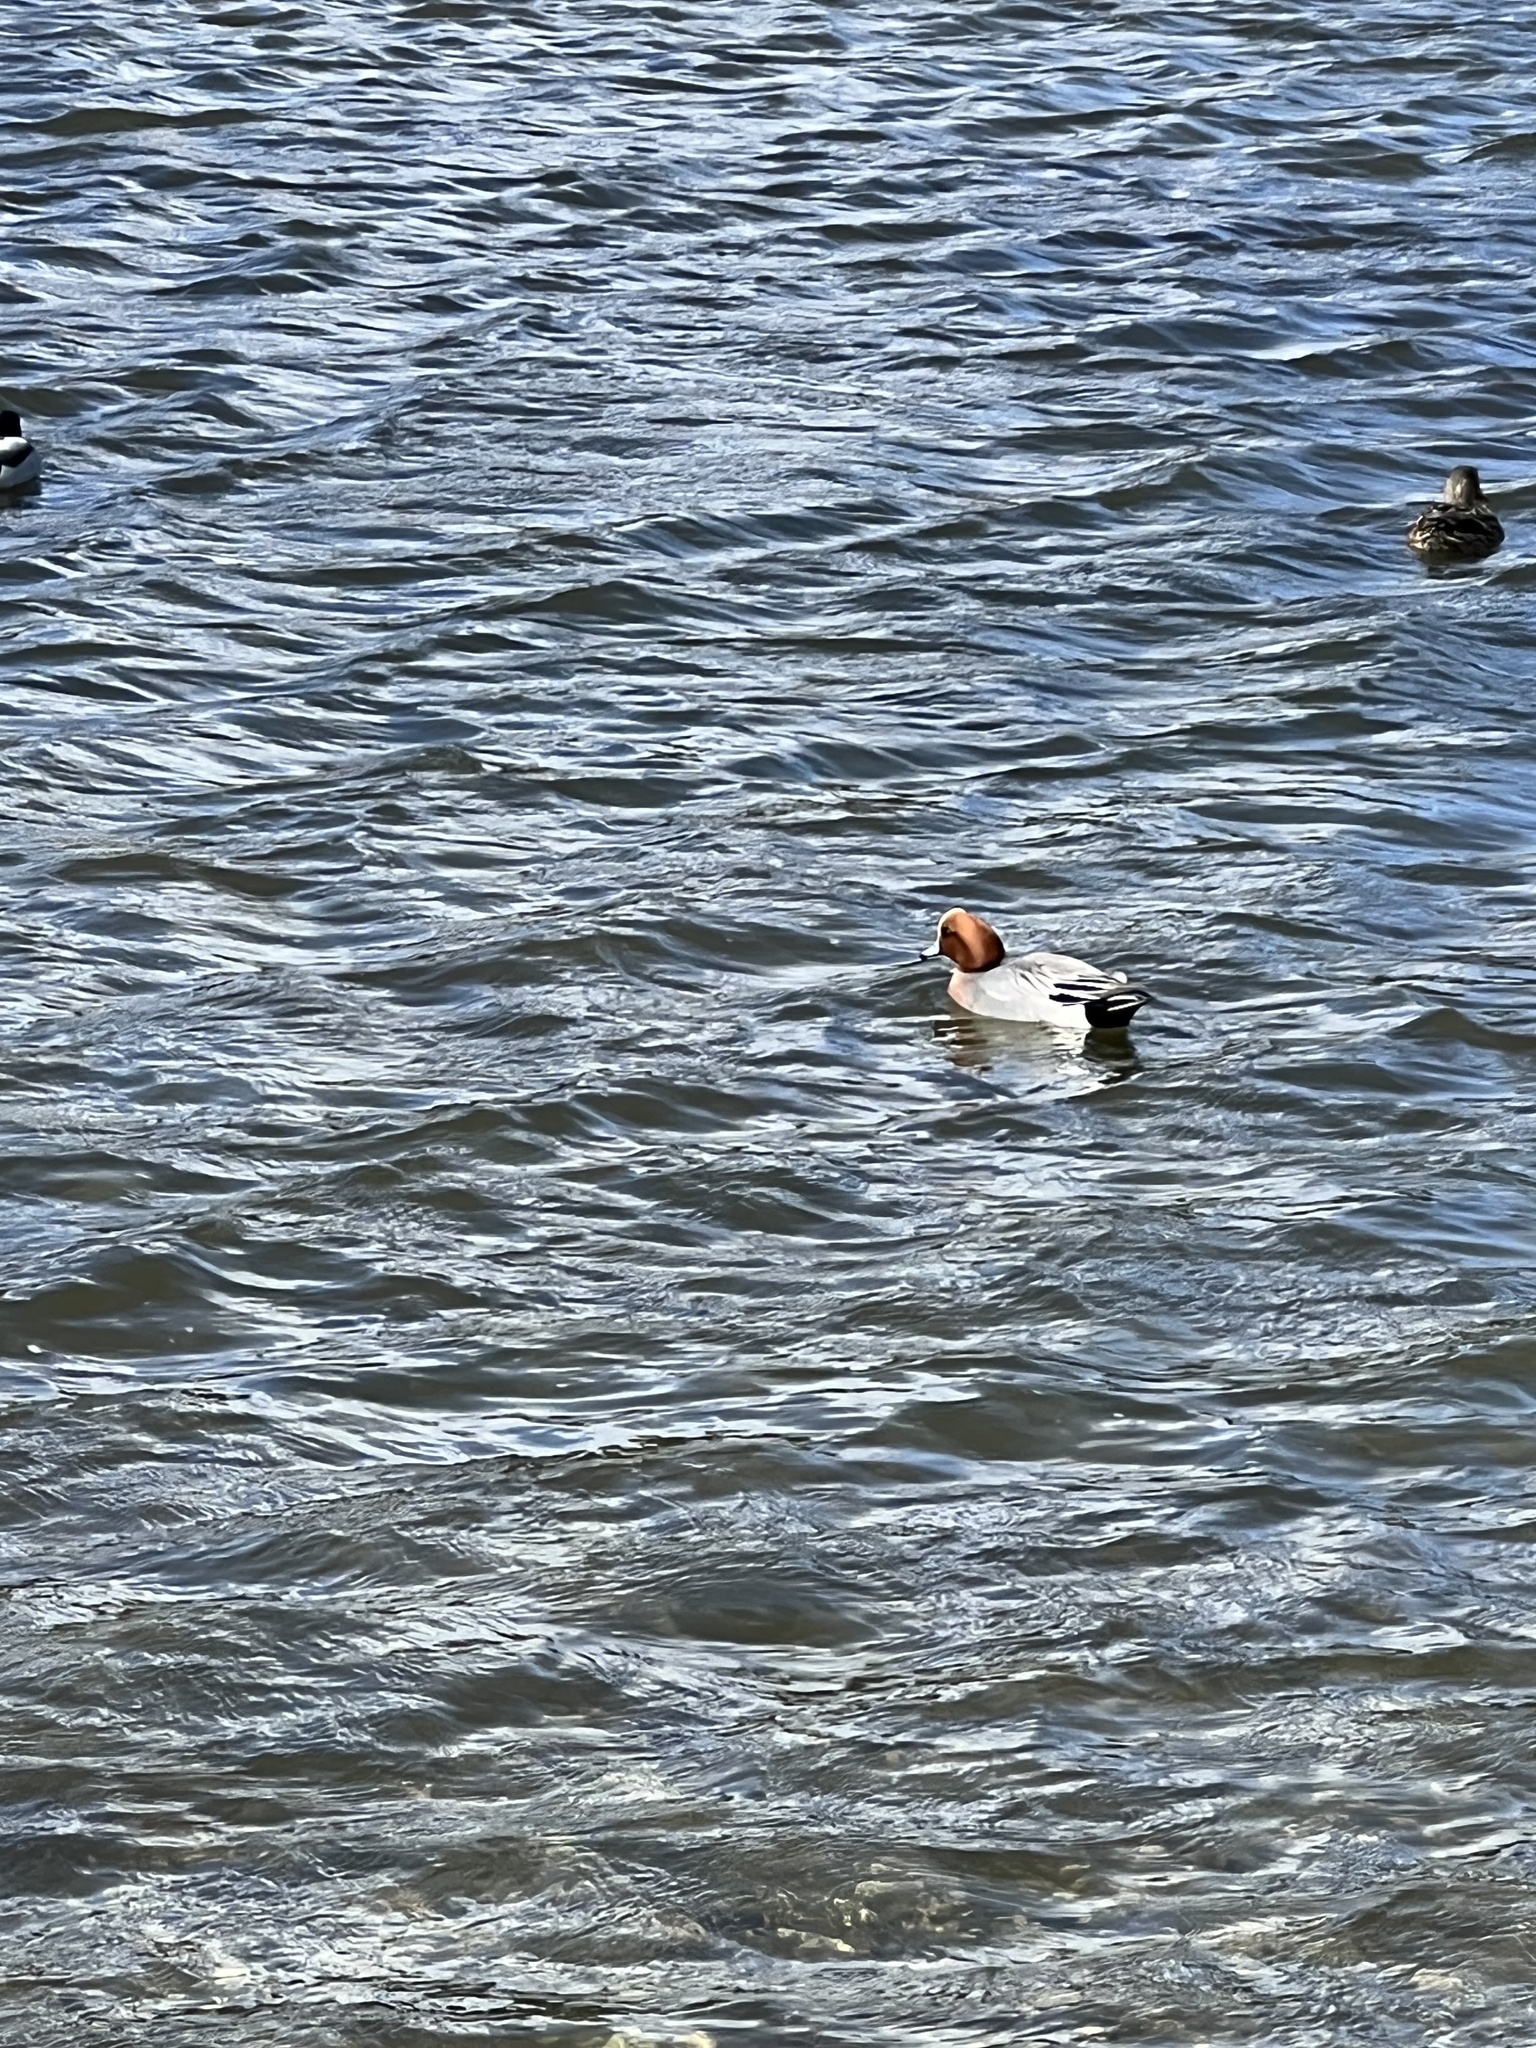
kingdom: Animalia
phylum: Chordata
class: Aves
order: Anseriformes
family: Anatidae
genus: Mareca
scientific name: Mareca penelope
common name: Eurasian wigeon
